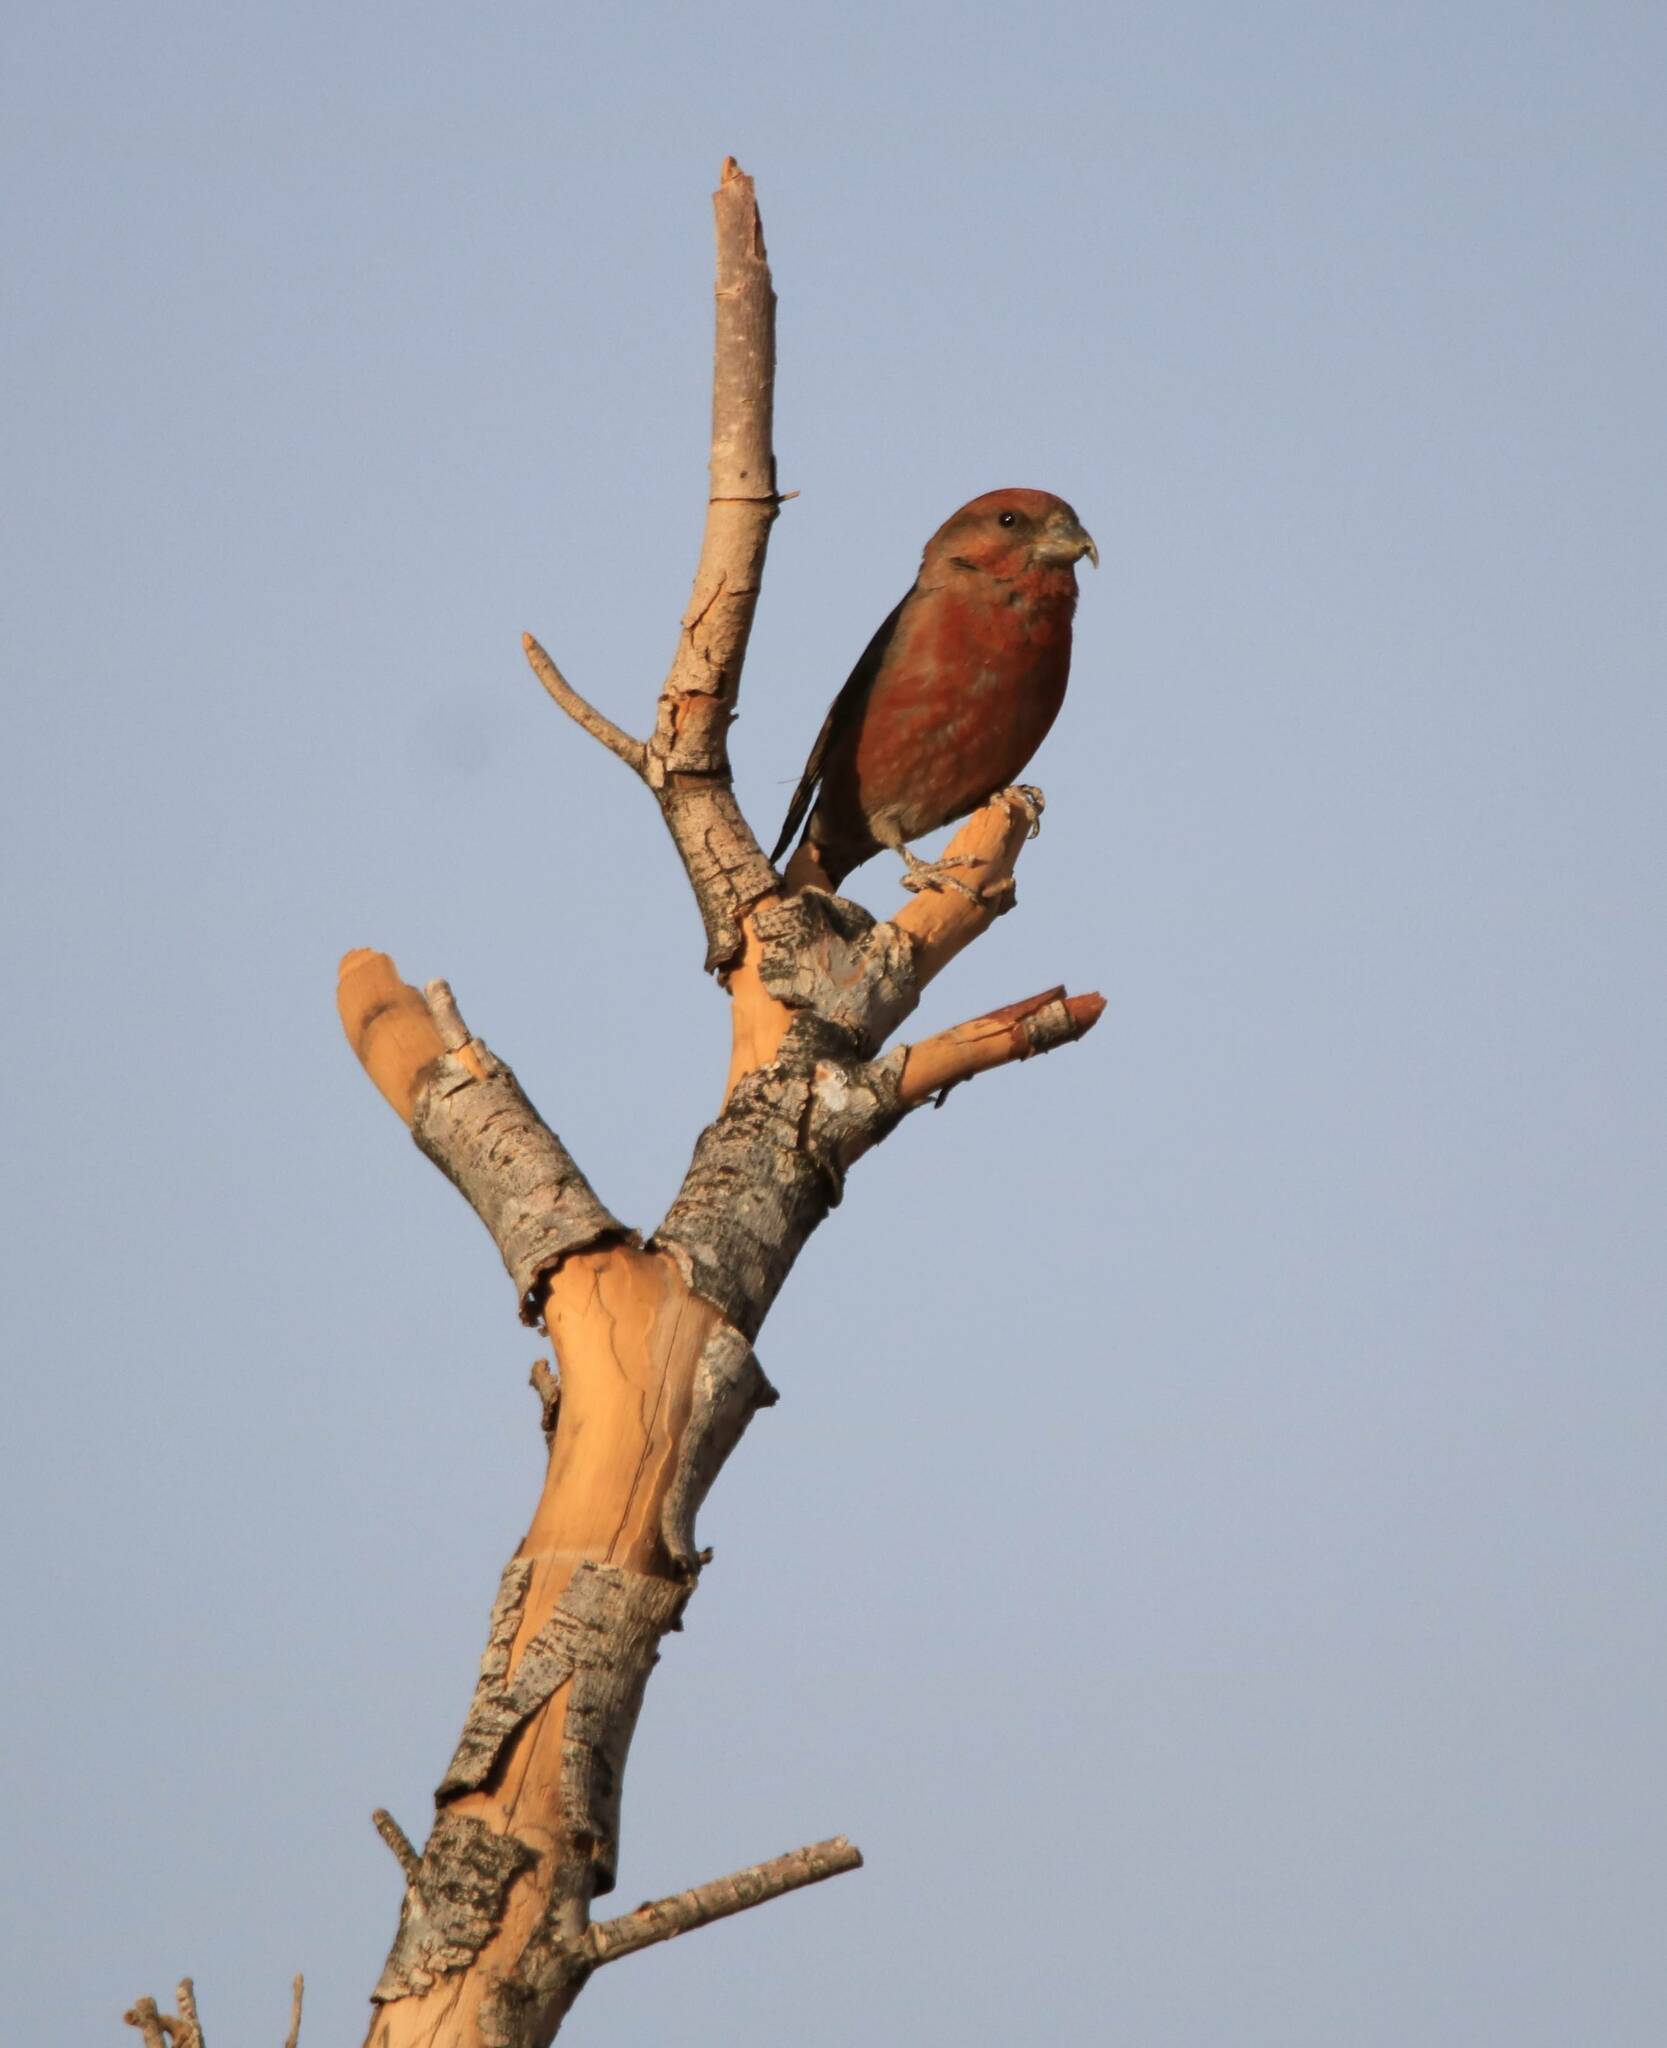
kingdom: Animalia
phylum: Chordata
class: Aves
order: Passeriformes
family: Fringillidae
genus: Loxia
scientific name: Loxia curvirostra
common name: Red crossbill
